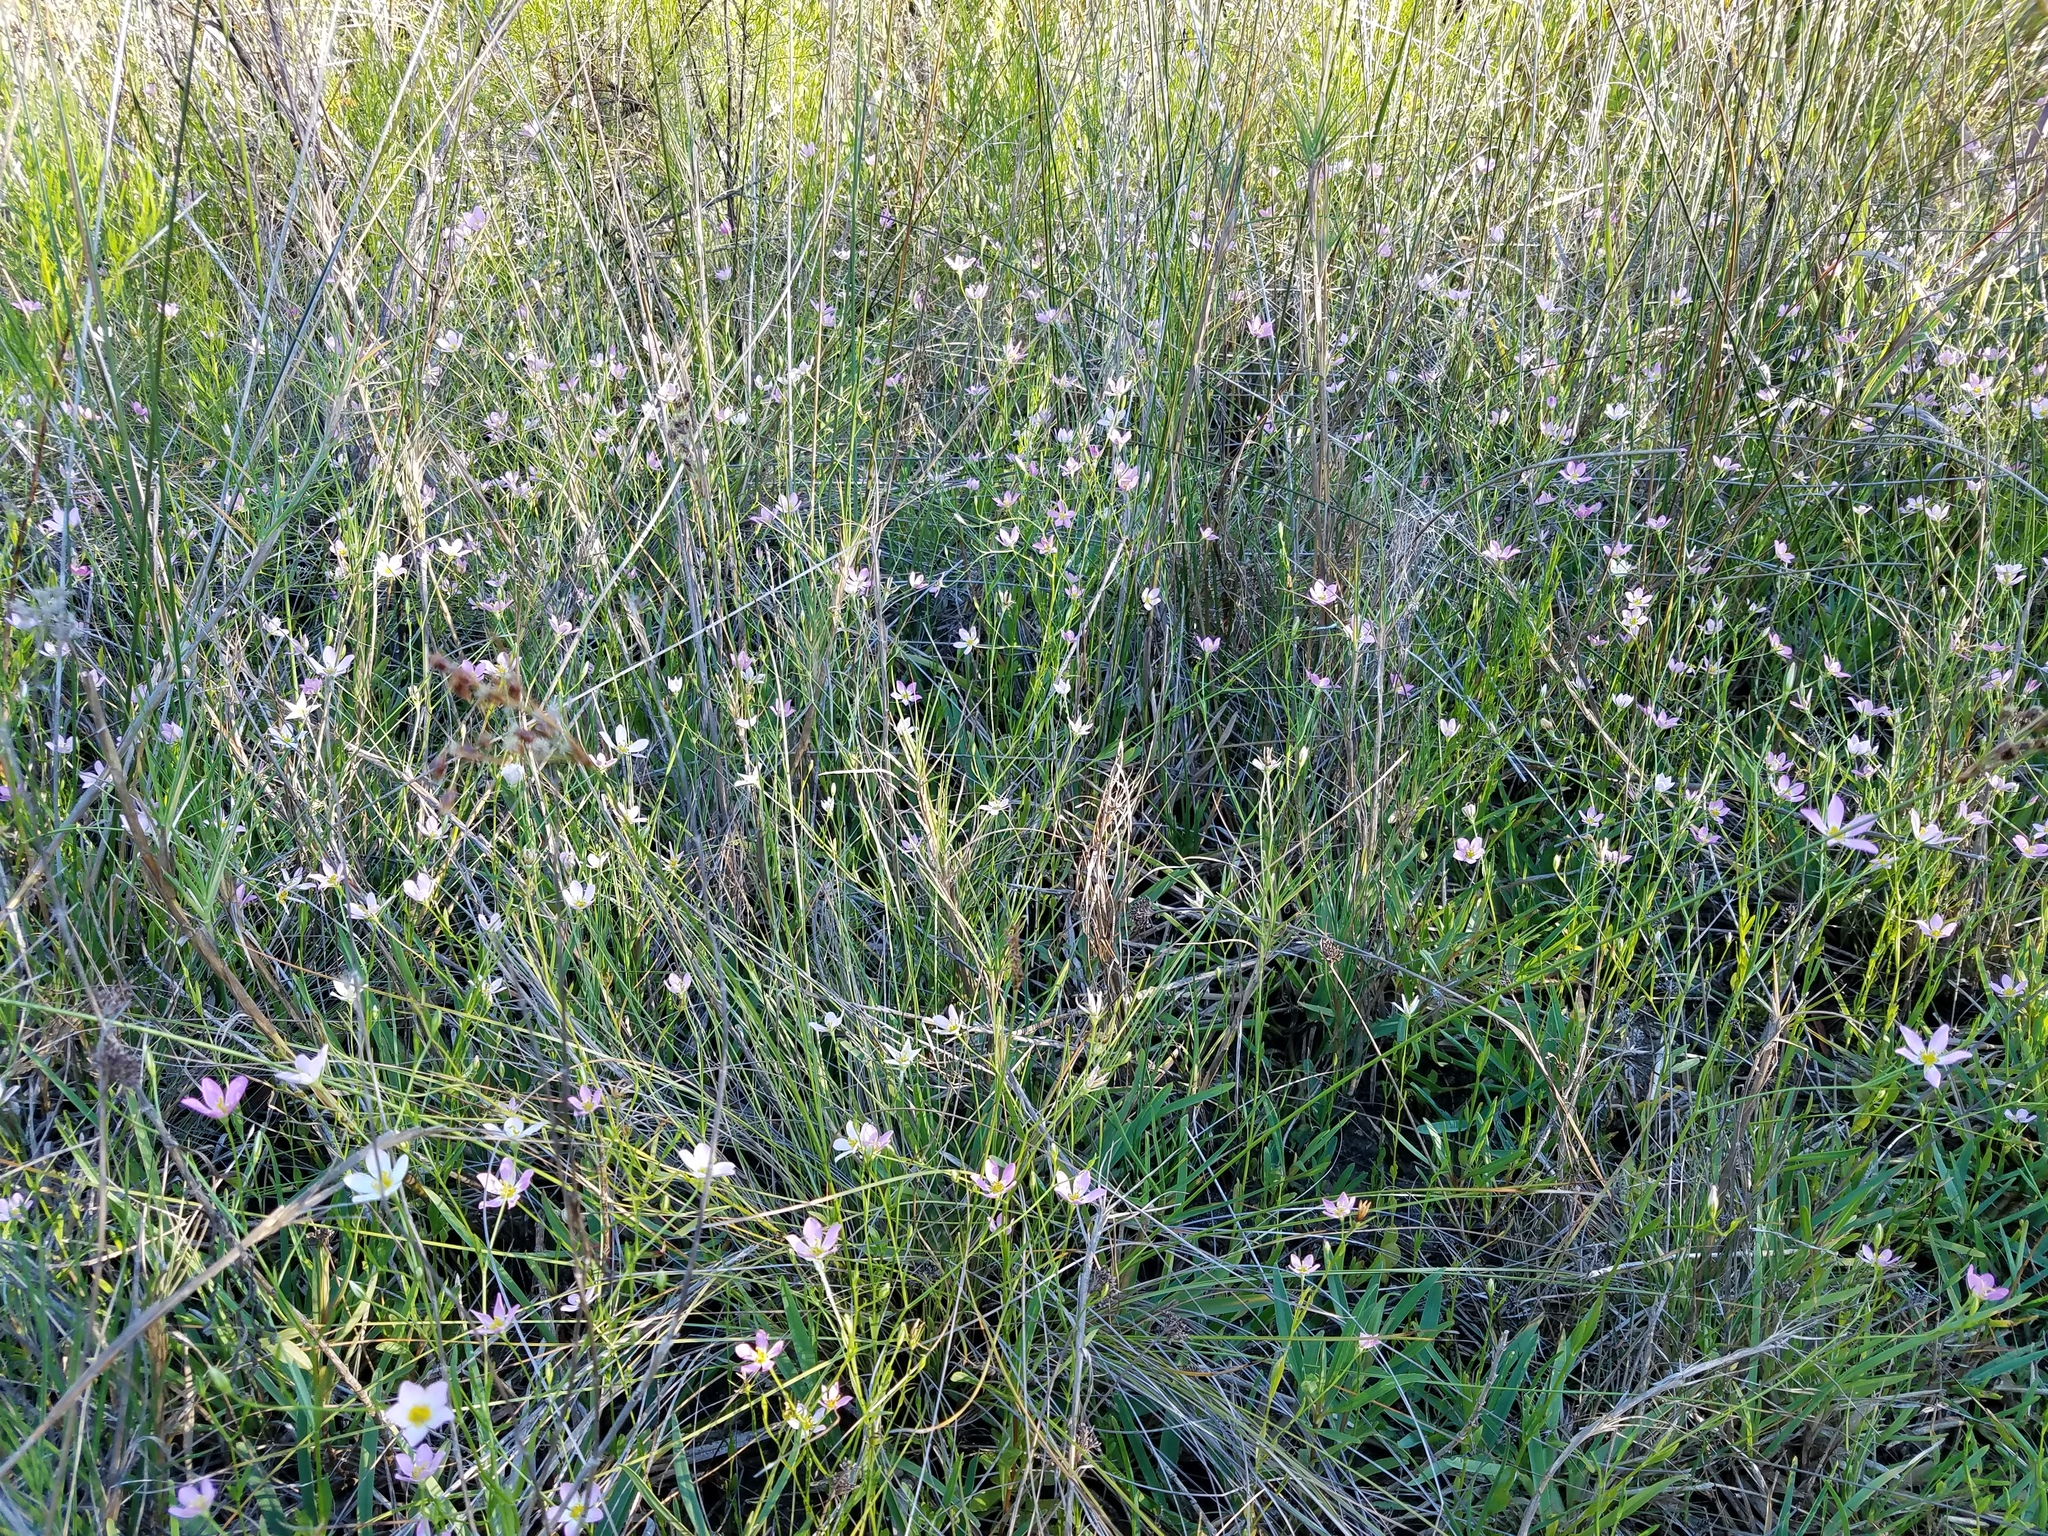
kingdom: Plantae
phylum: Tracheophyta
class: Magnoliopsida
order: Gentianales
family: Gentianaceae
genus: Sabatia
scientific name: Sabatia stellaris
